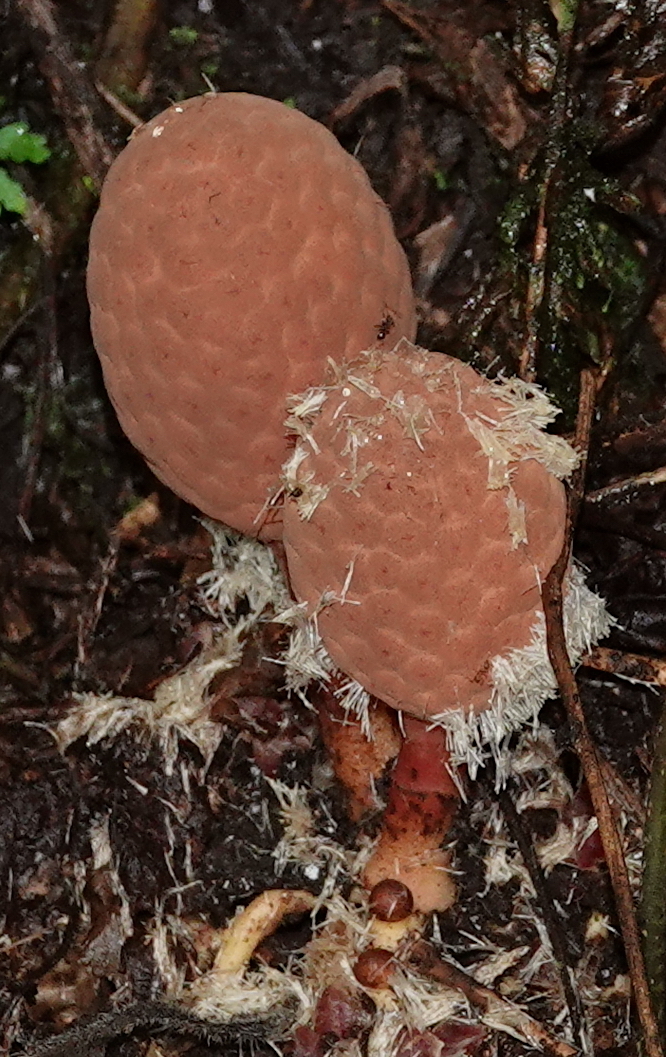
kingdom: Plantae
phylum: Tracheophyta
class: Magnoliopsida
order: Santalales
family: Balanophoraceae
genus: Helosis
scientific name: Helosis cayennensis
